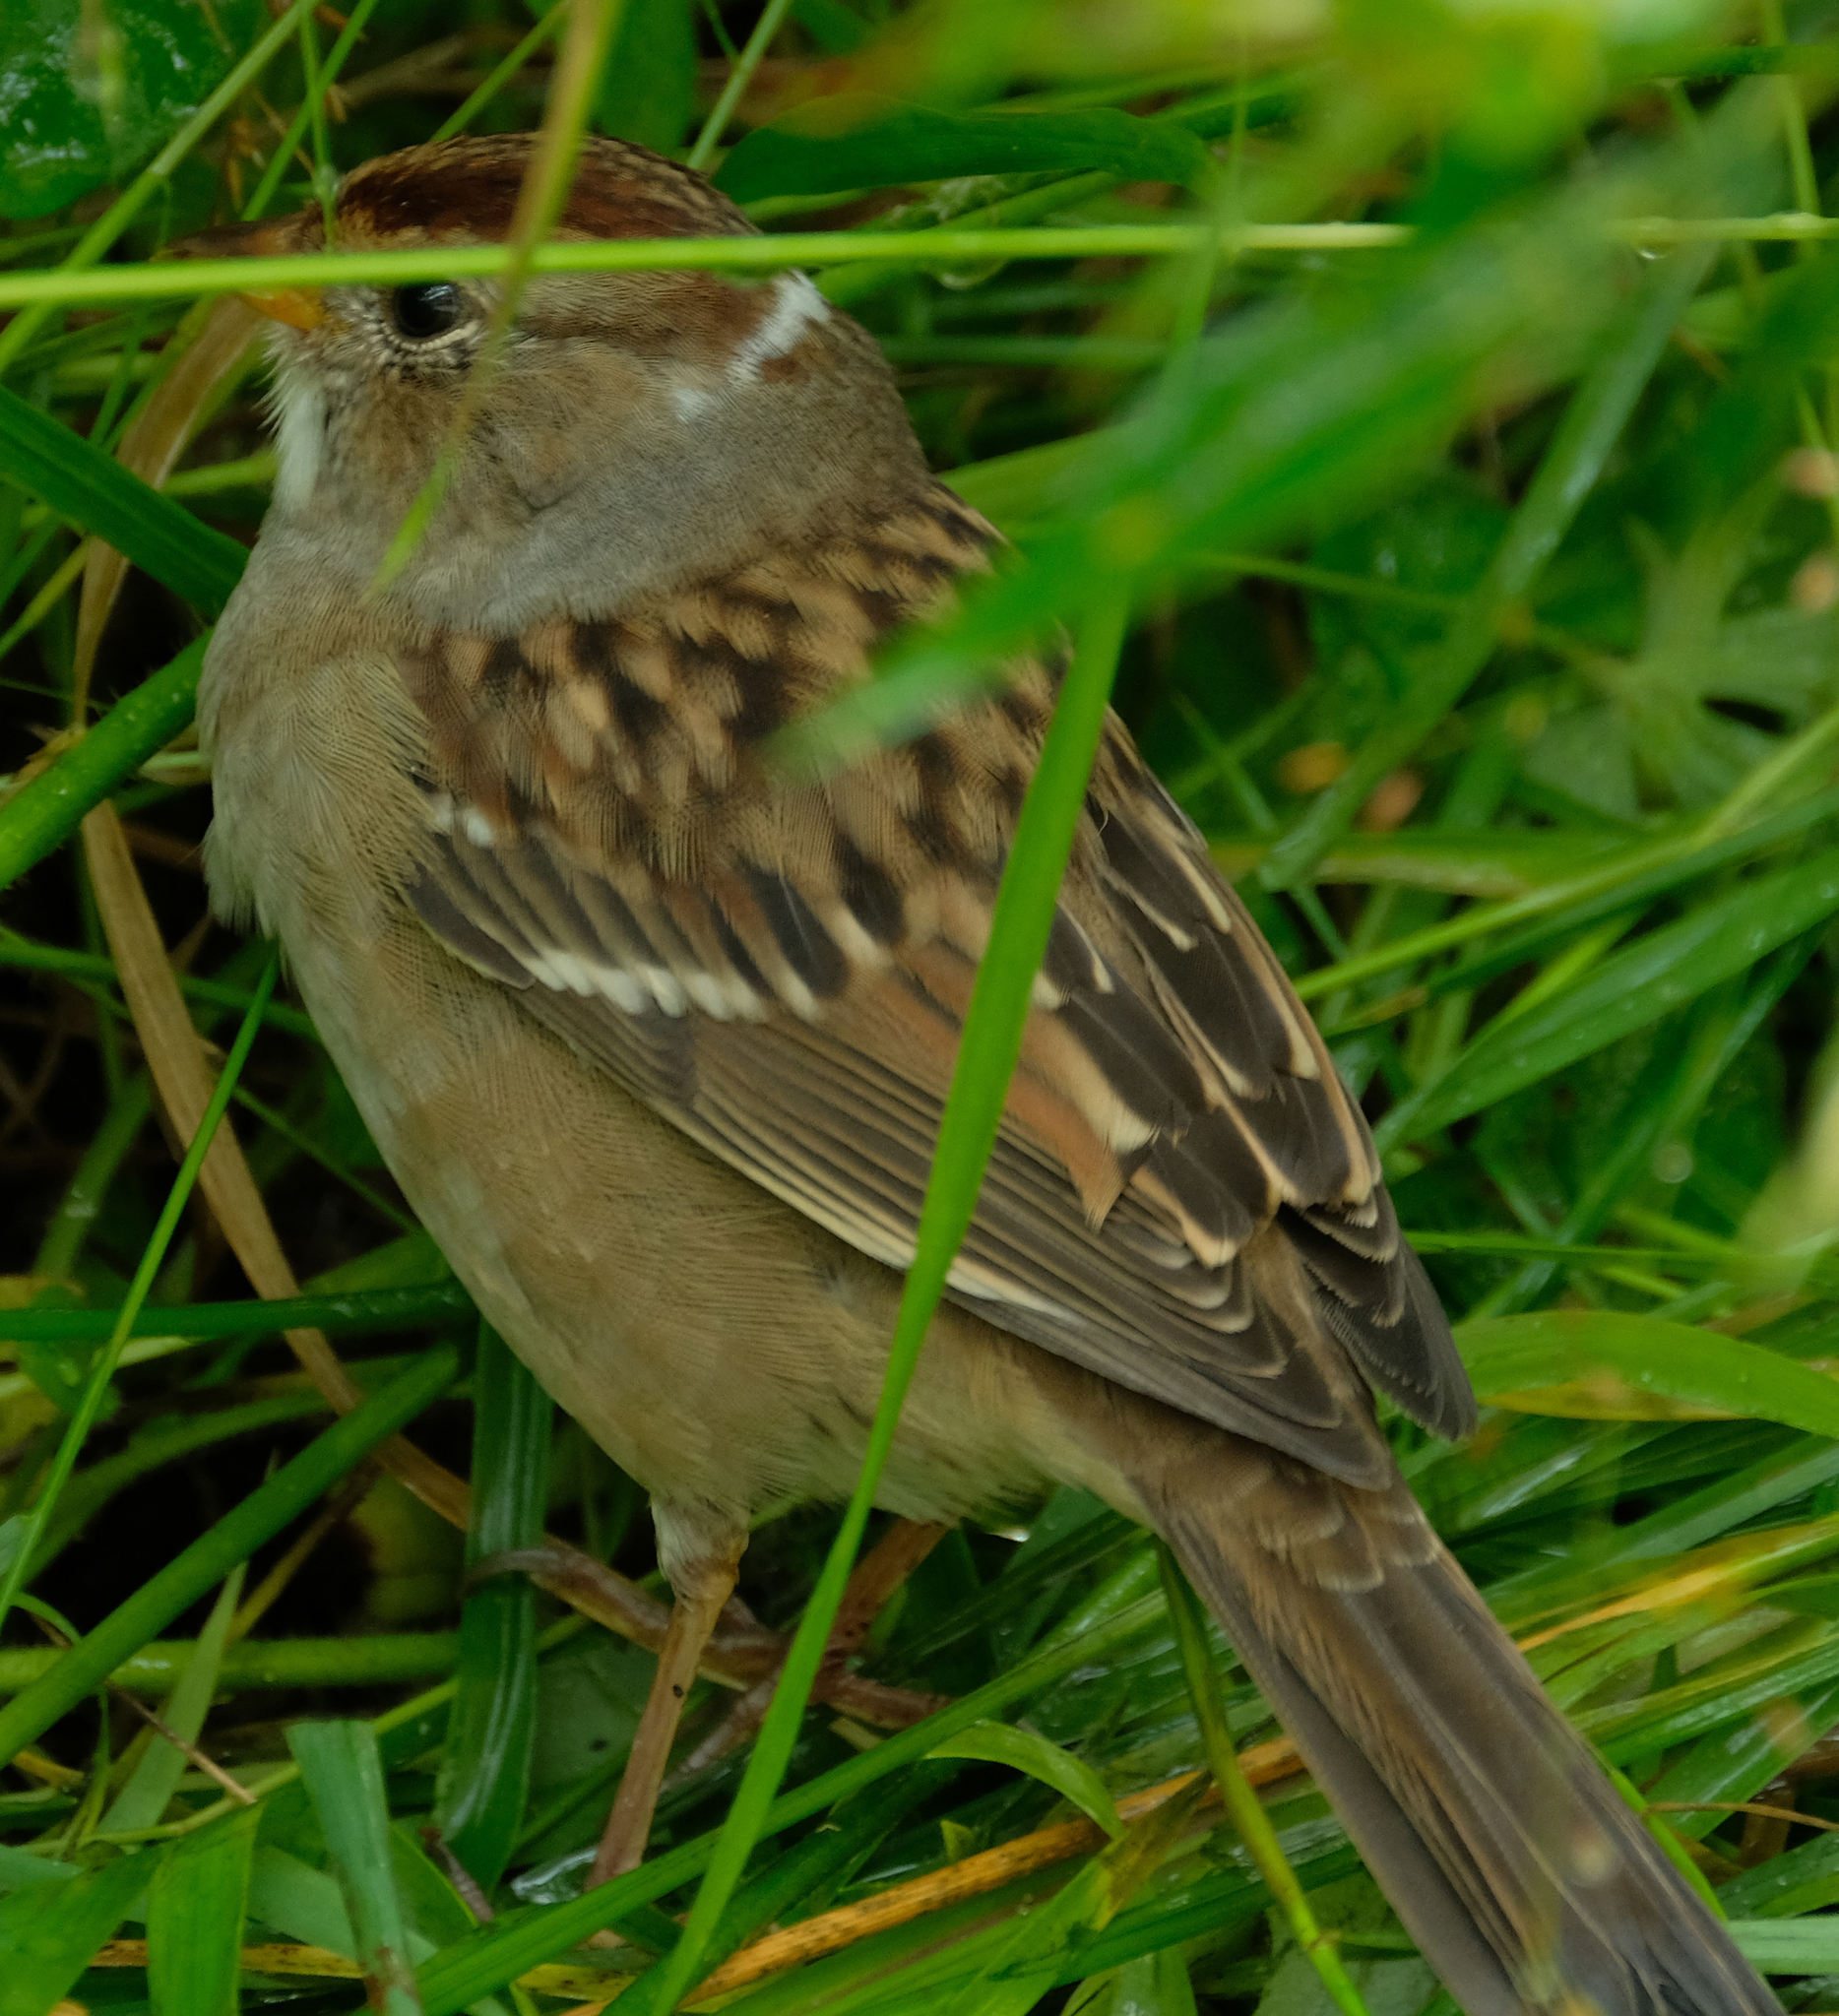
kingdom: Animalia
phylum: Chordata
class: Aves
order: Passeriformes
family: Passerellidae
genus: Zonotrichia
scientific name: Zonotrichia leucophrys
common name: White-crowned sparrow
